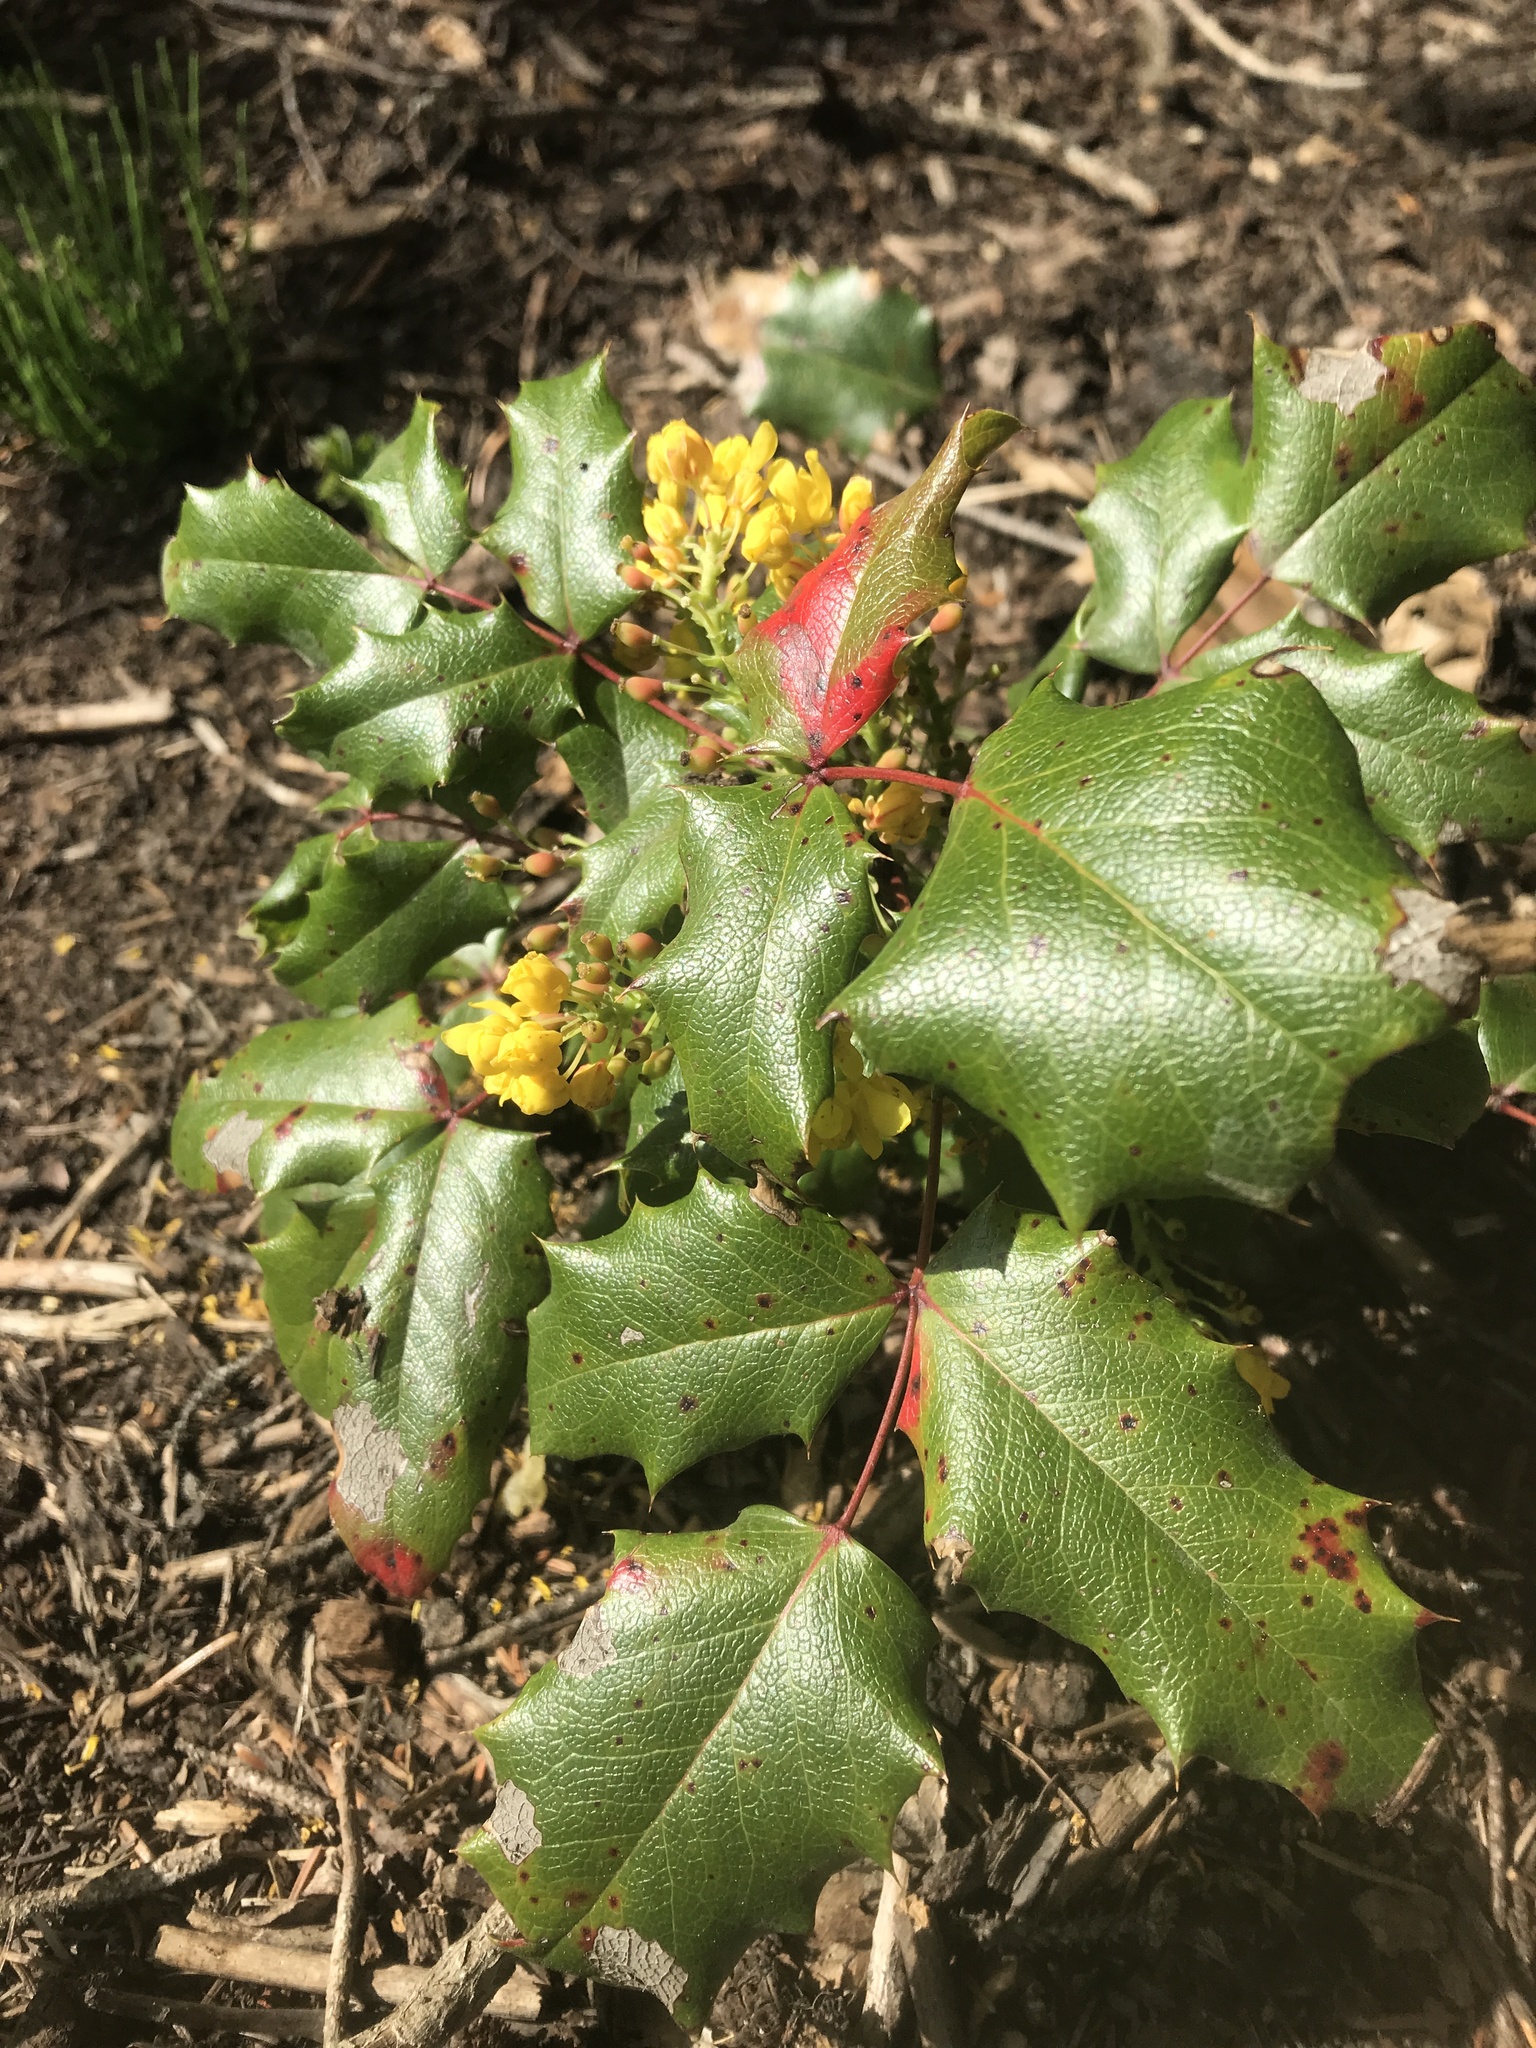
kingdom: Plantae
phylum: Tracheophyta
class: Magnoliopsida
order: Ranunculales
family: Berberidaceae
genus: Mahonia
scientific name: Mahonia aquifolium
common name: Oregon-grape
